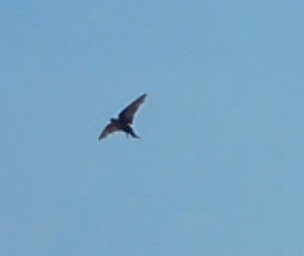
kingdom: Animalia
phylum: Chordata
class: Aves
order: Passeriformes
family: Hirundinidae
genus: Ptyonoprogne
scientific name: Ptyonoprogne concolor
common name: Dusky crag-martin
